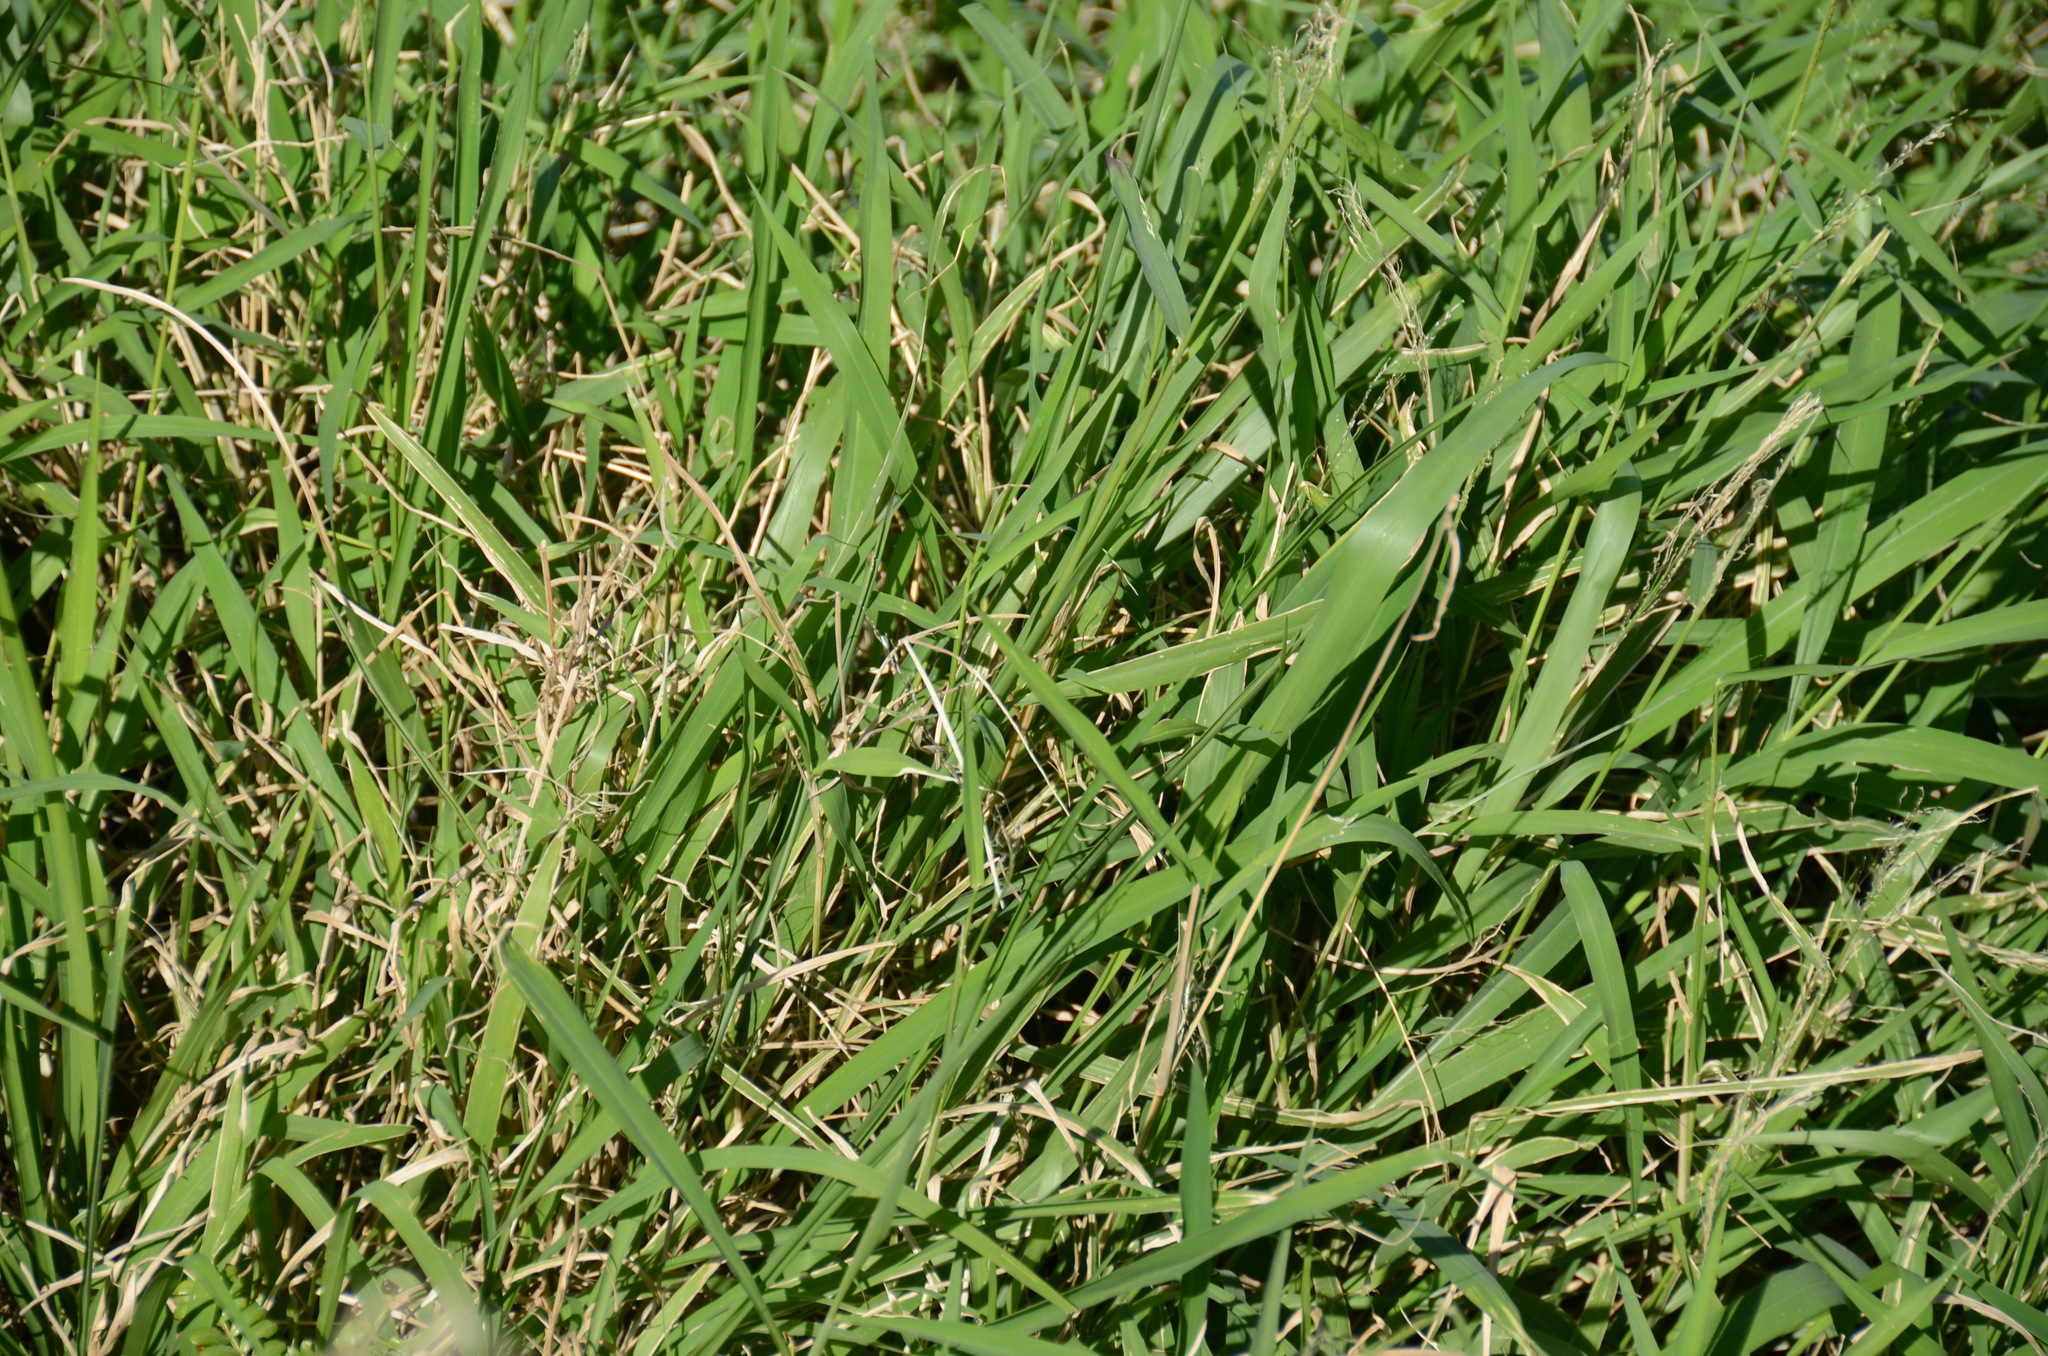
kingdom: Plantae
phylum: Tracheophyta
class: Liliopsida
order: Poales
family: Poaceae
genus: Megathyrsus
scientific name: Megathyrsus maximus
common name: Guineagrass
